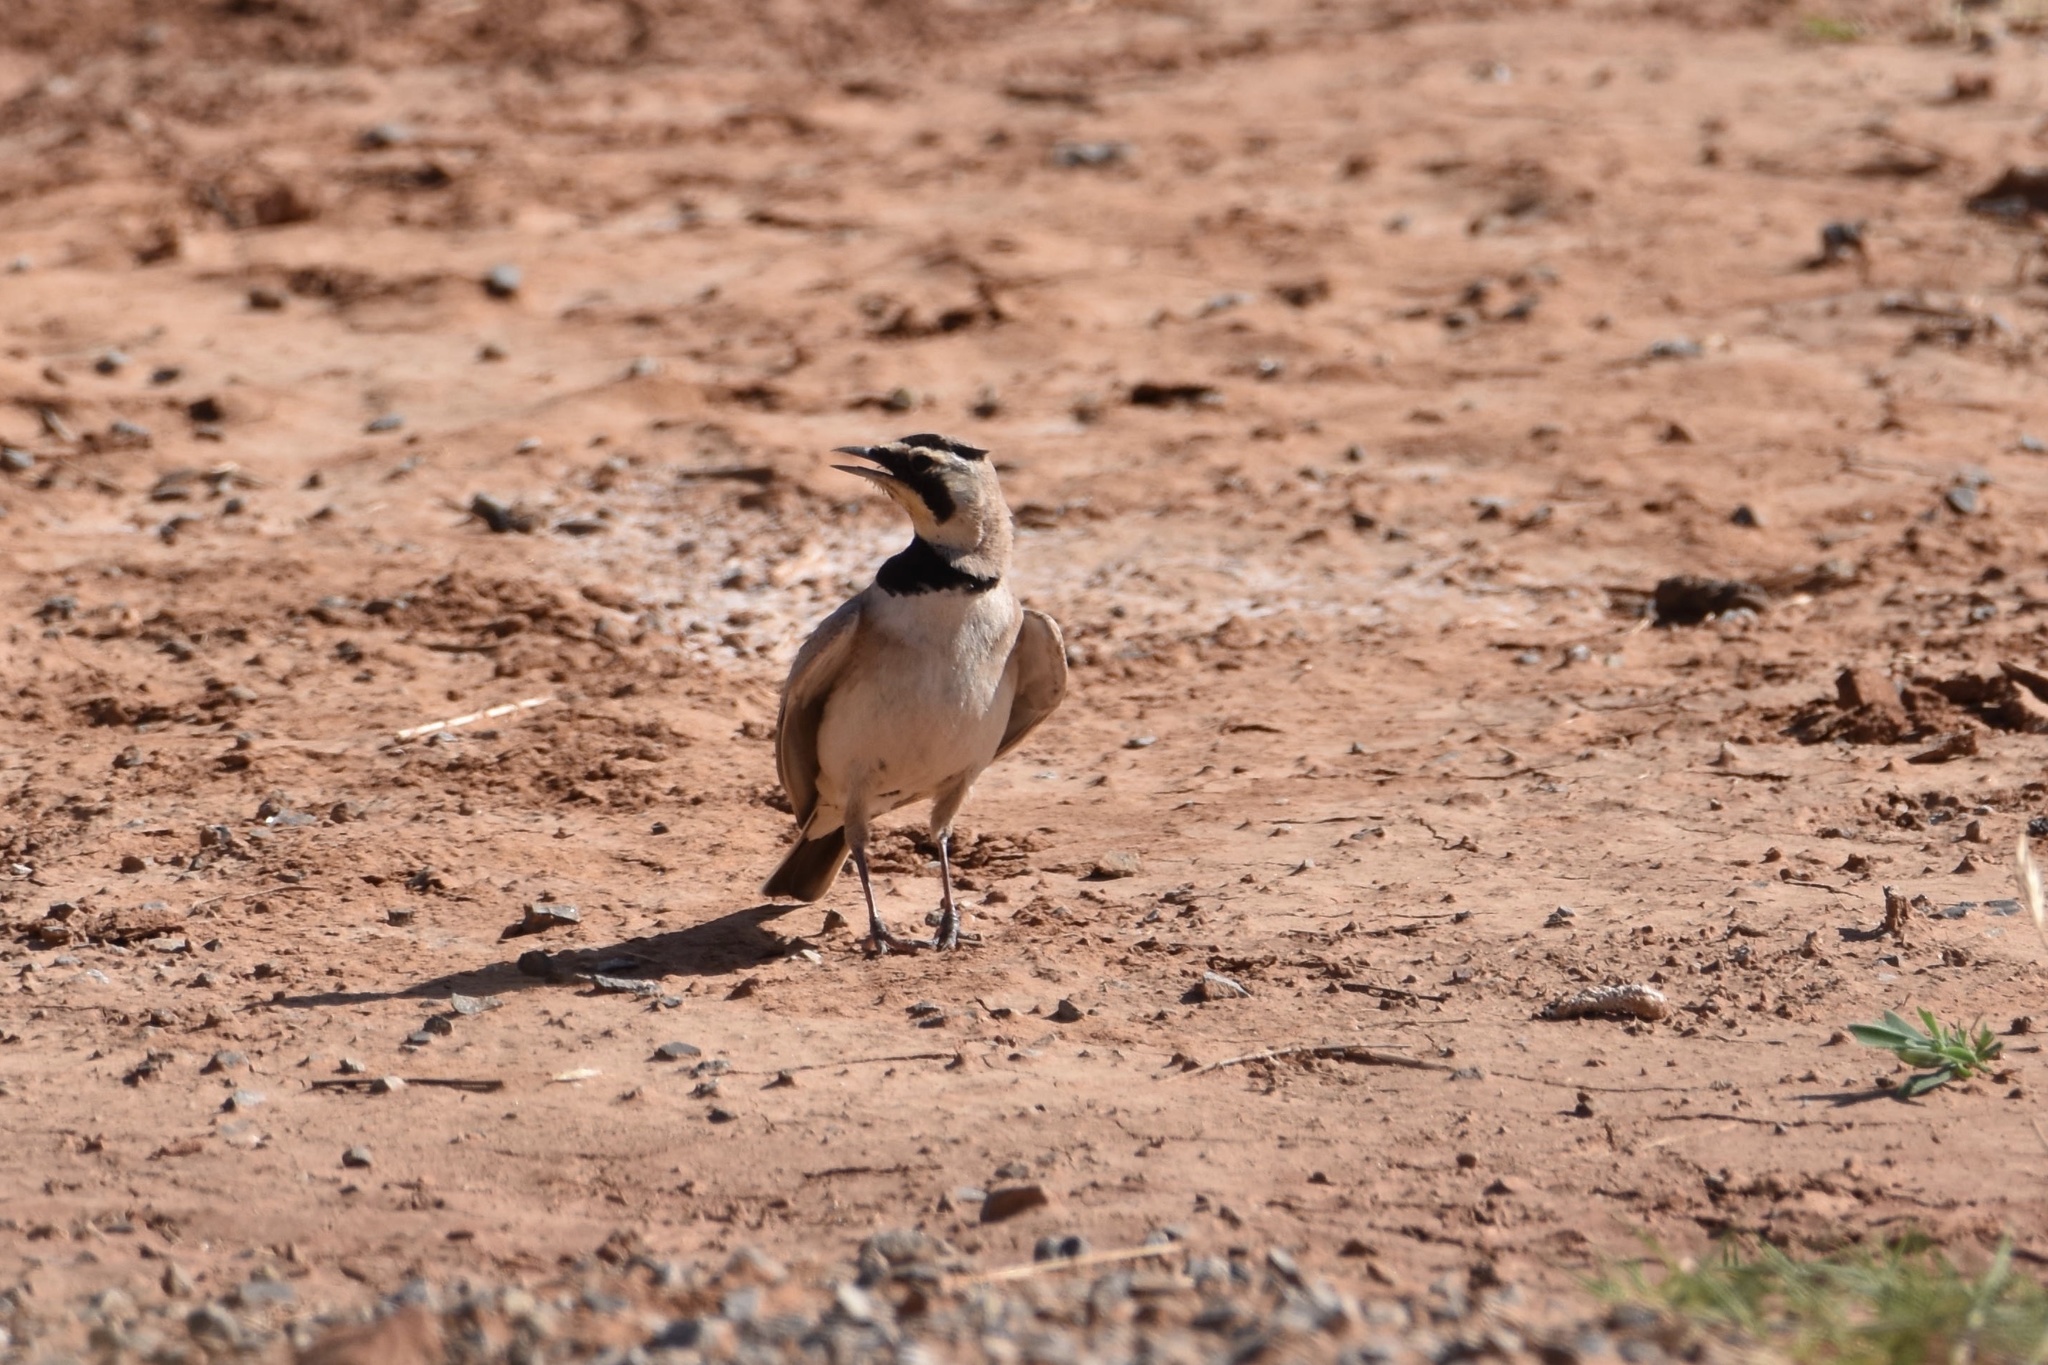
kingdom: Animalia
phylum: Chordata
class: Aves
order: Passeriformes
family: Alaudidae
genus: Eremophila
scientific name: Eremophila alpestris
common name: Horned lark
